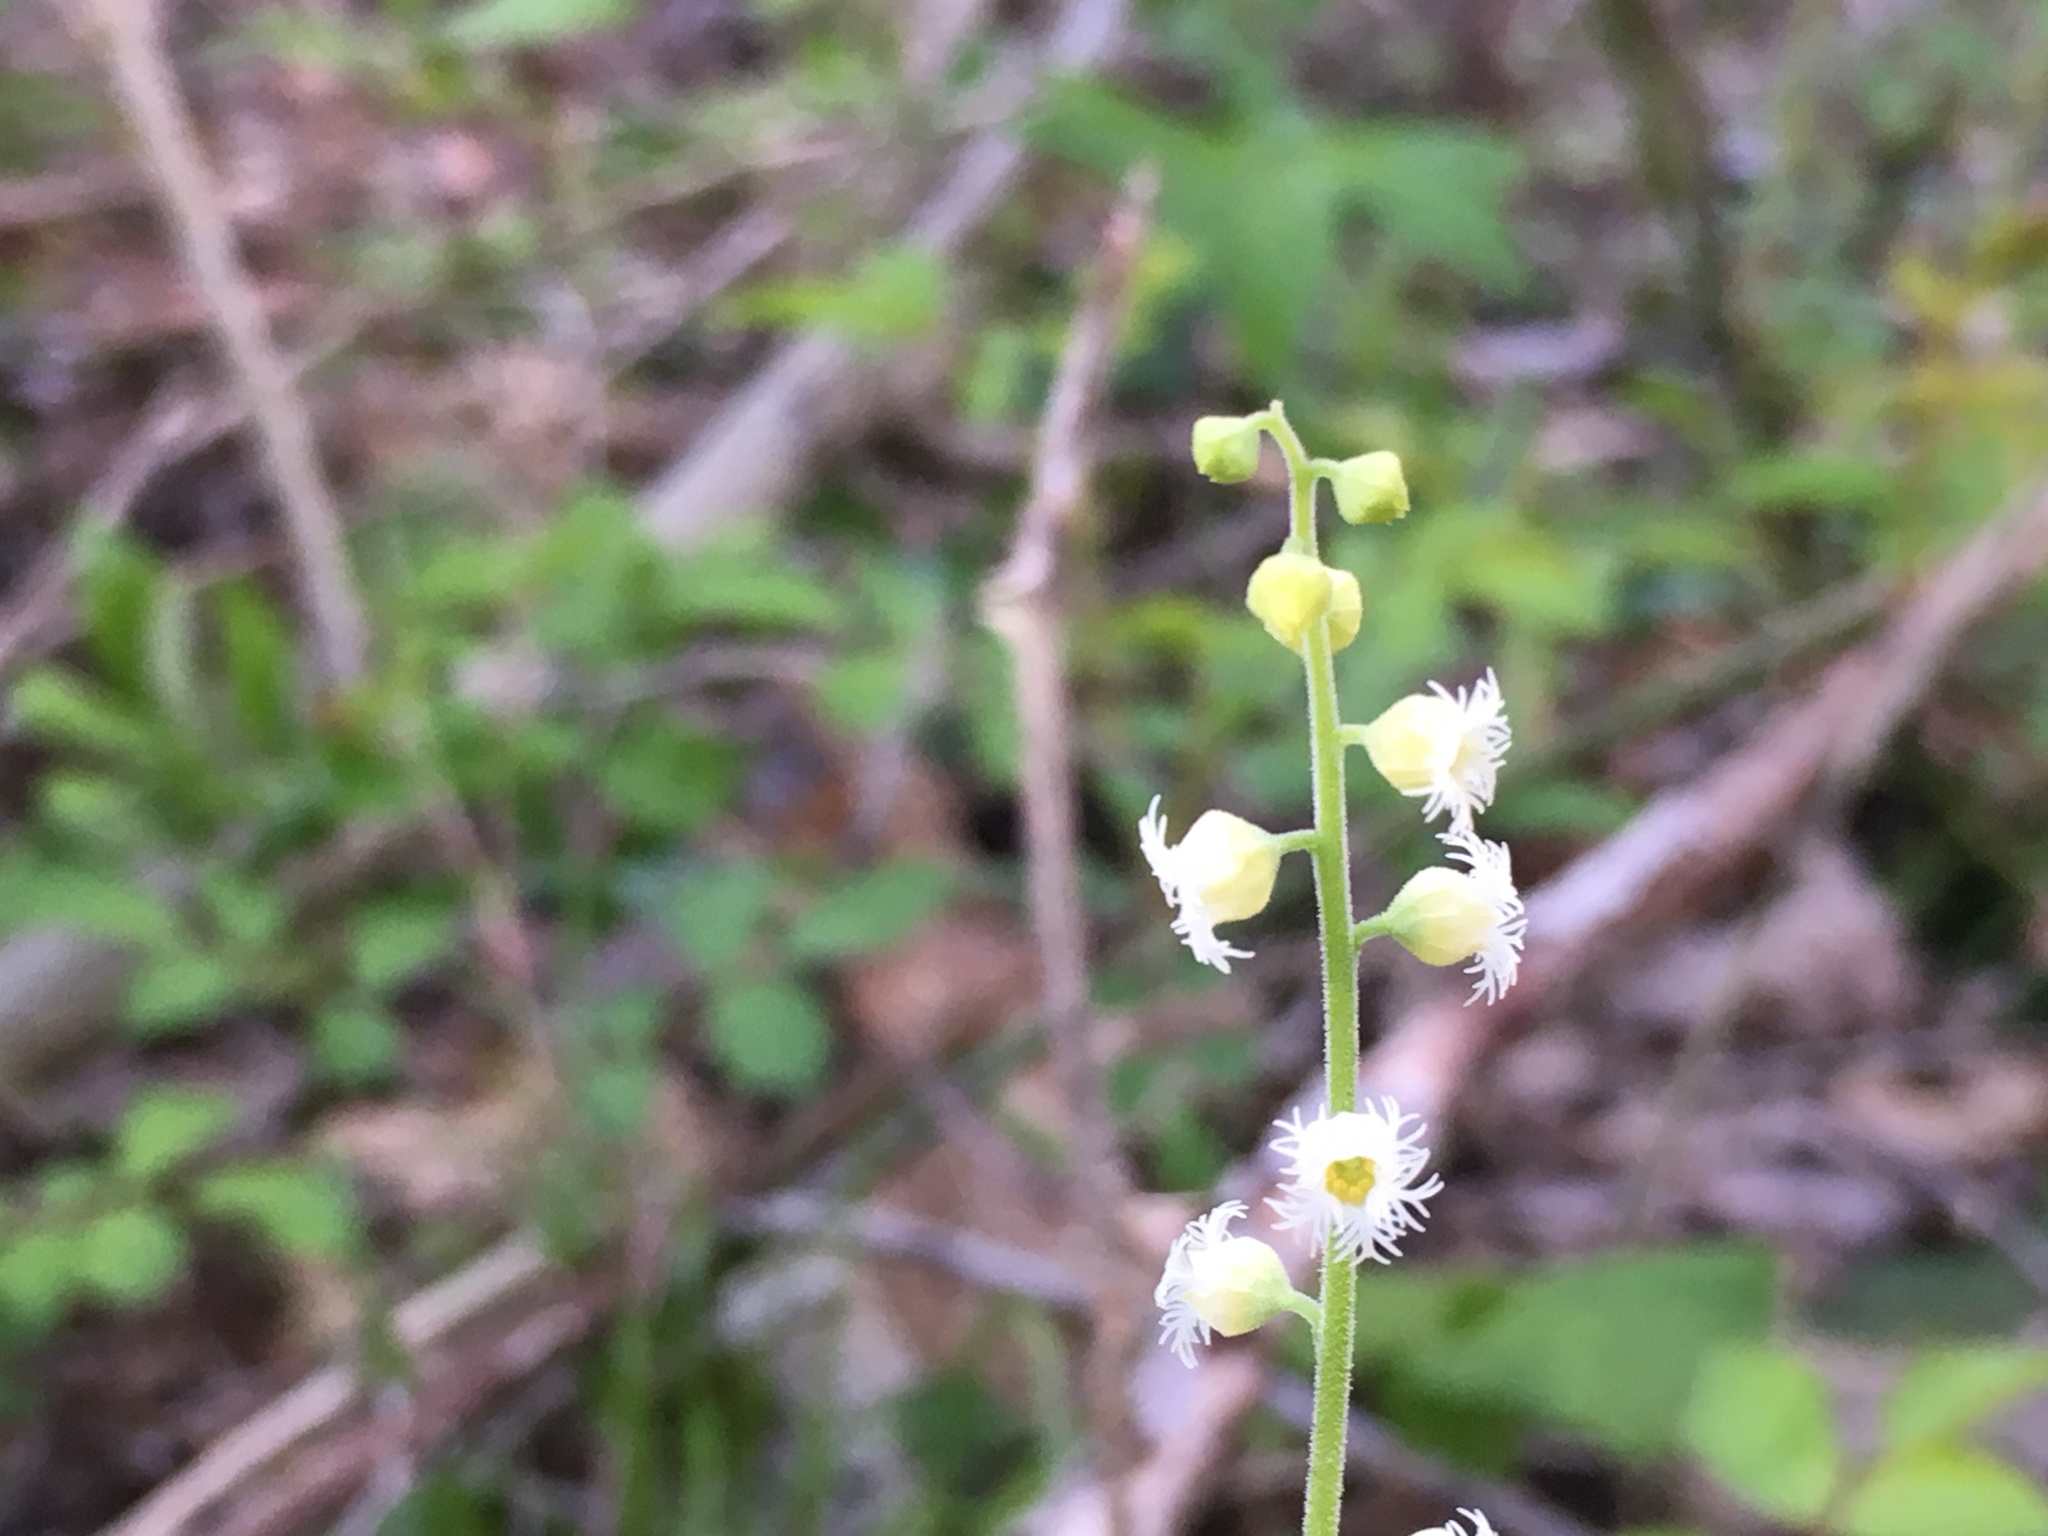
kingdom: Plantae
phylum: Tracheophyta
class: Magnoliopsida
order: Saxifragales
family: Saxifragaceae
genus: Mitella
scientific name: Mitella diphylla
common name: Coolwort
